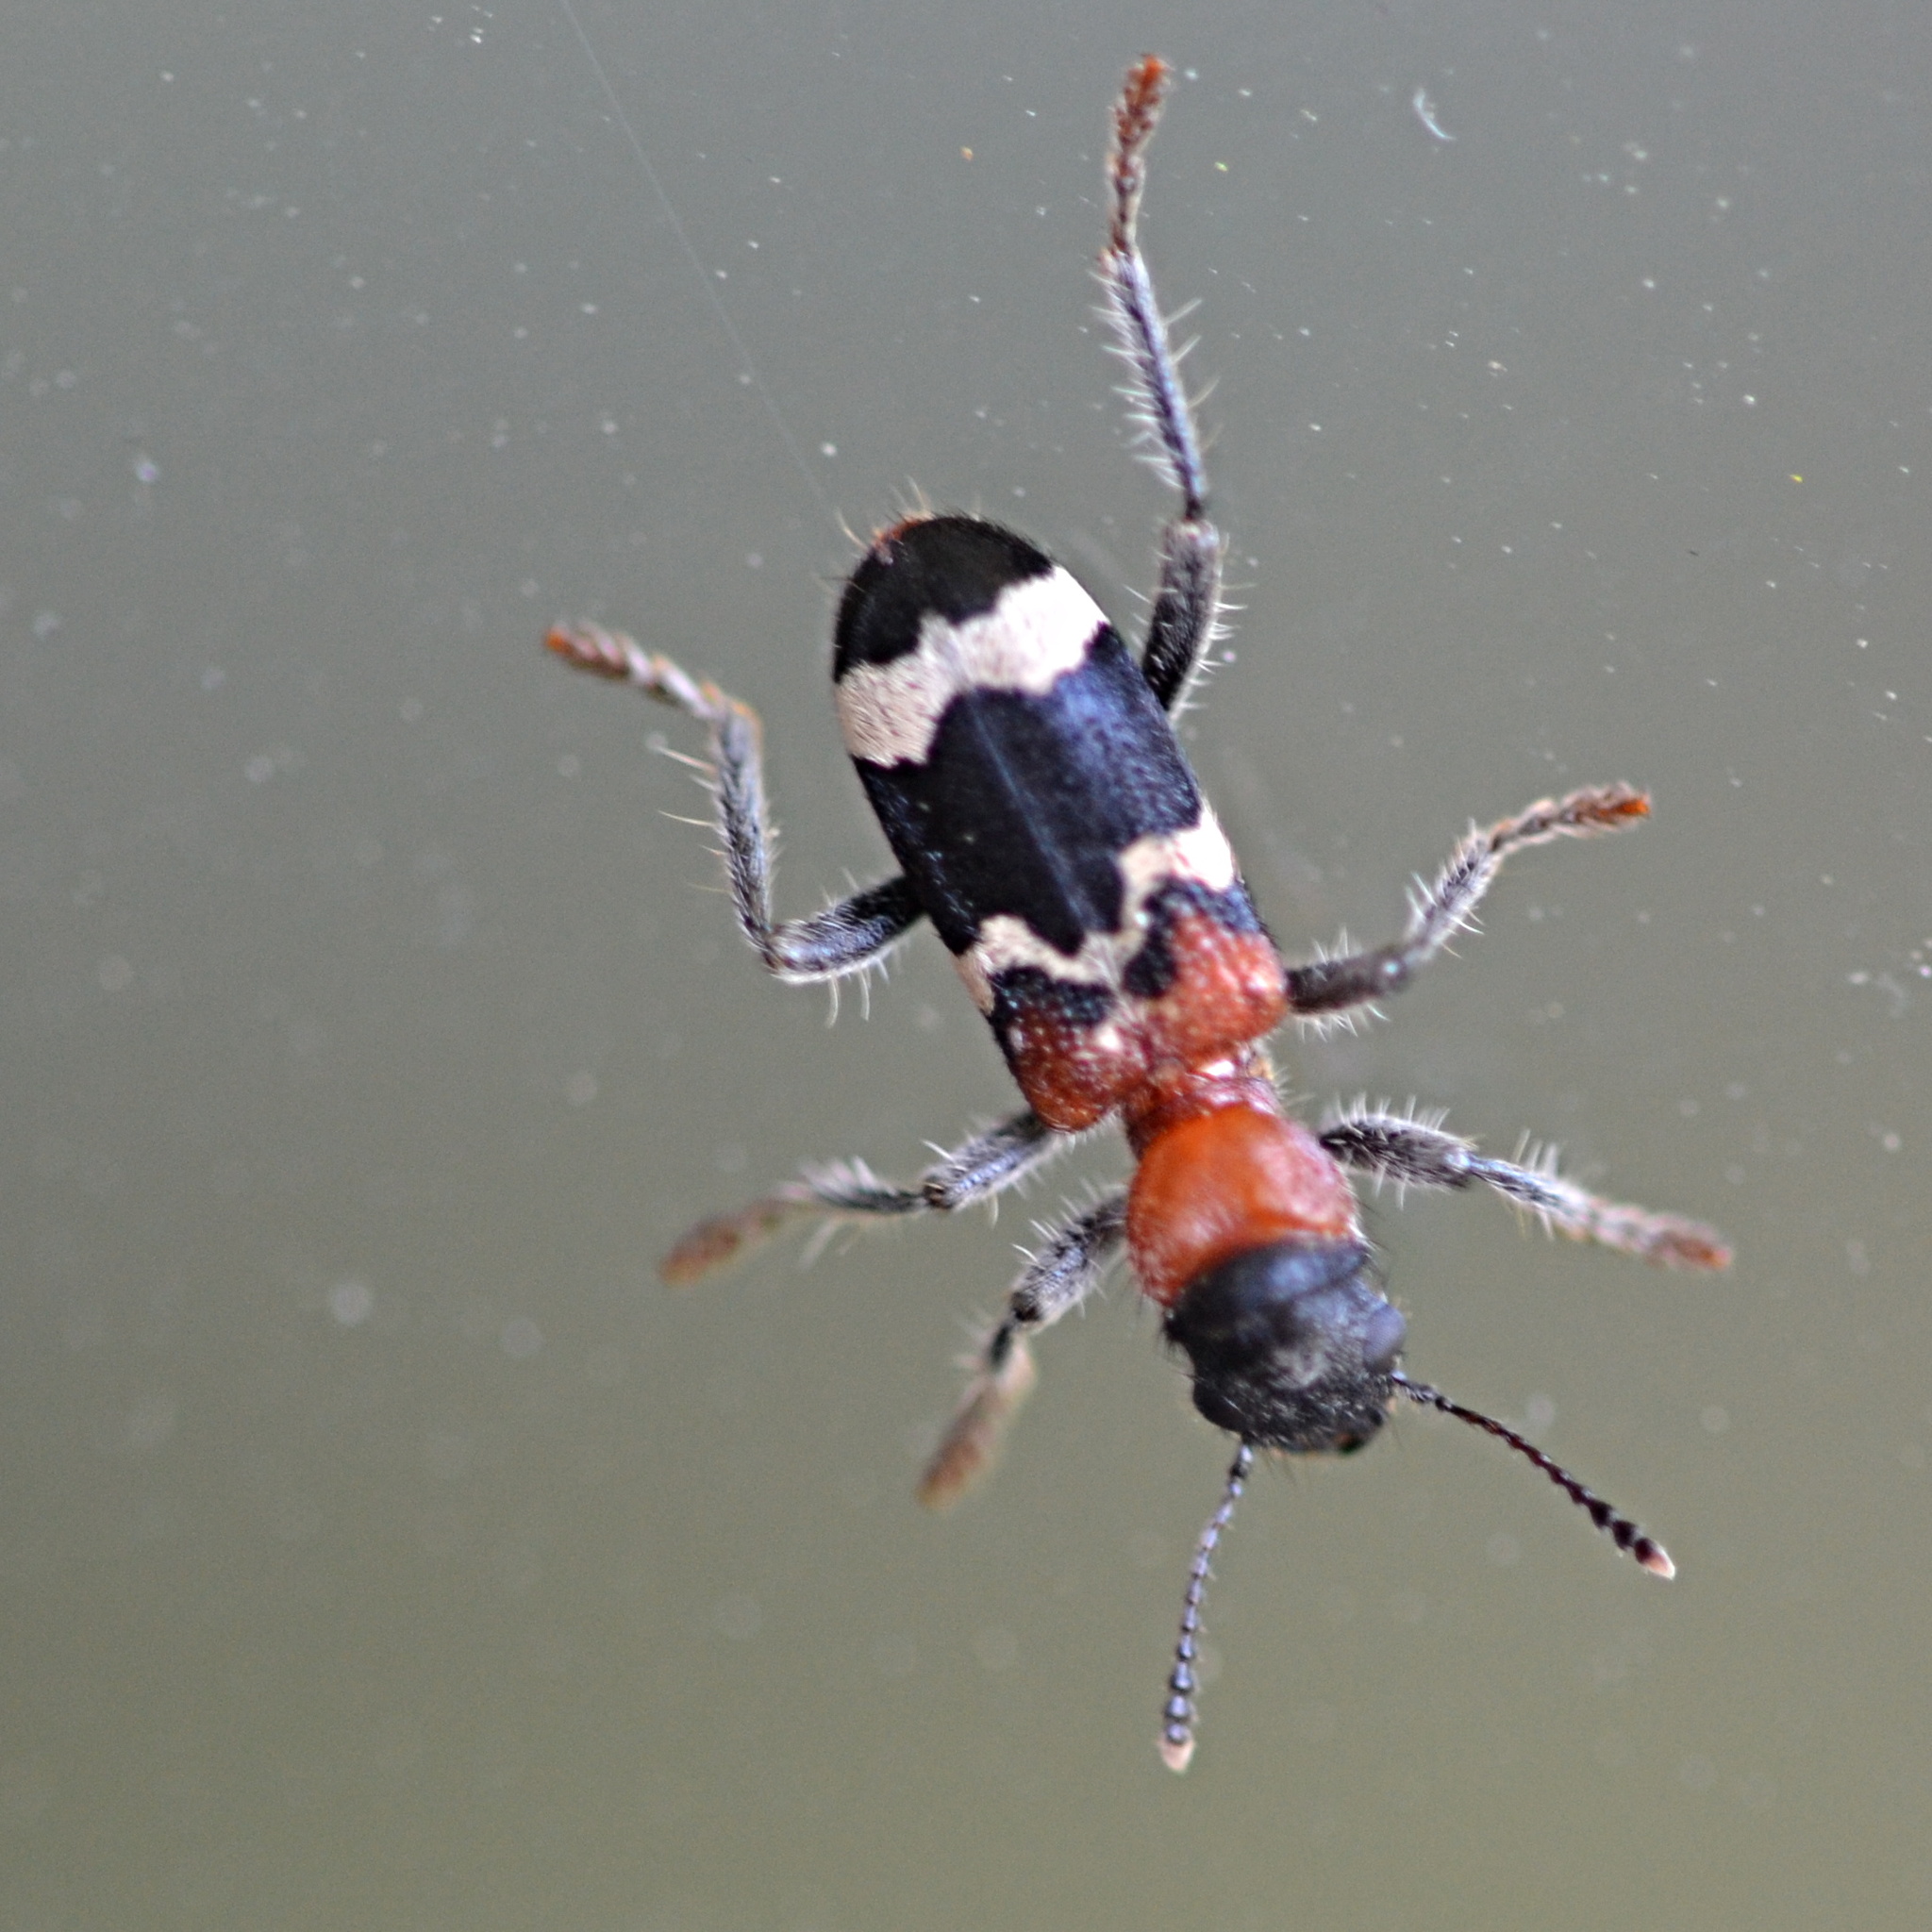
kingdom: Animalia
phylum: Arthropoda
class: Insecta
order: Coleoptera
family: Cleridae
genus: Thanasimus
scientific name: Thanasimus formicarius
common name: Ant beetle
